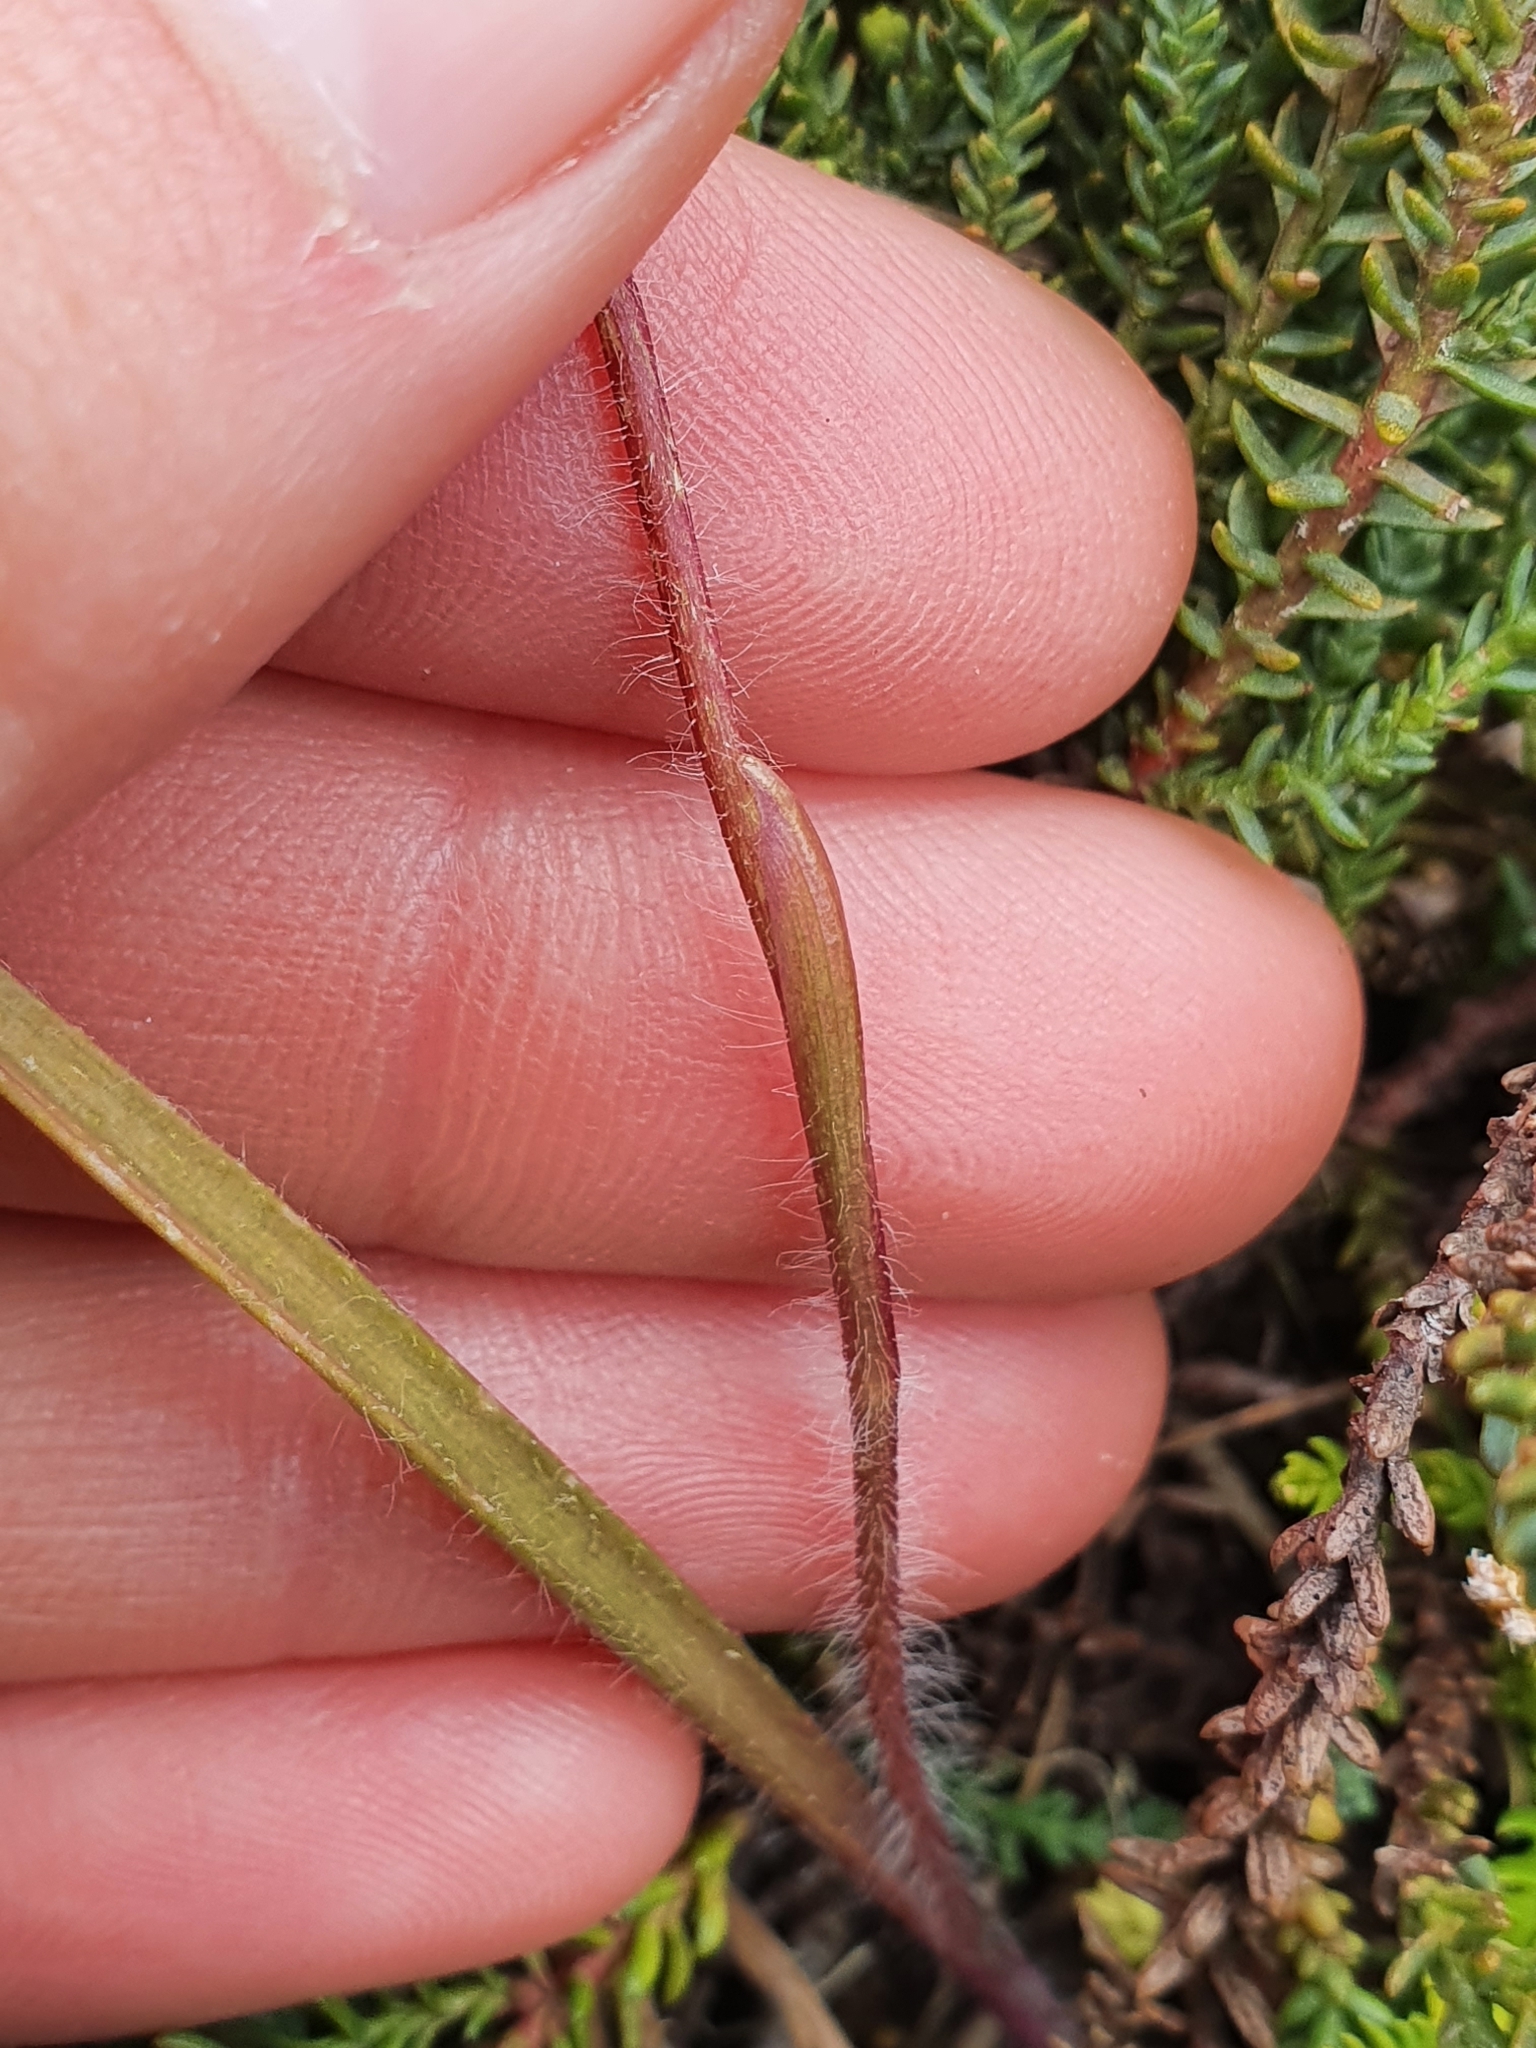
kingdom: Plantae
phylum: Tracheophyta
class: Liliopsida
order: Asparagales
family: Orchidaceae
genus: Caladenia
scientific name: Caladenia lyallii
